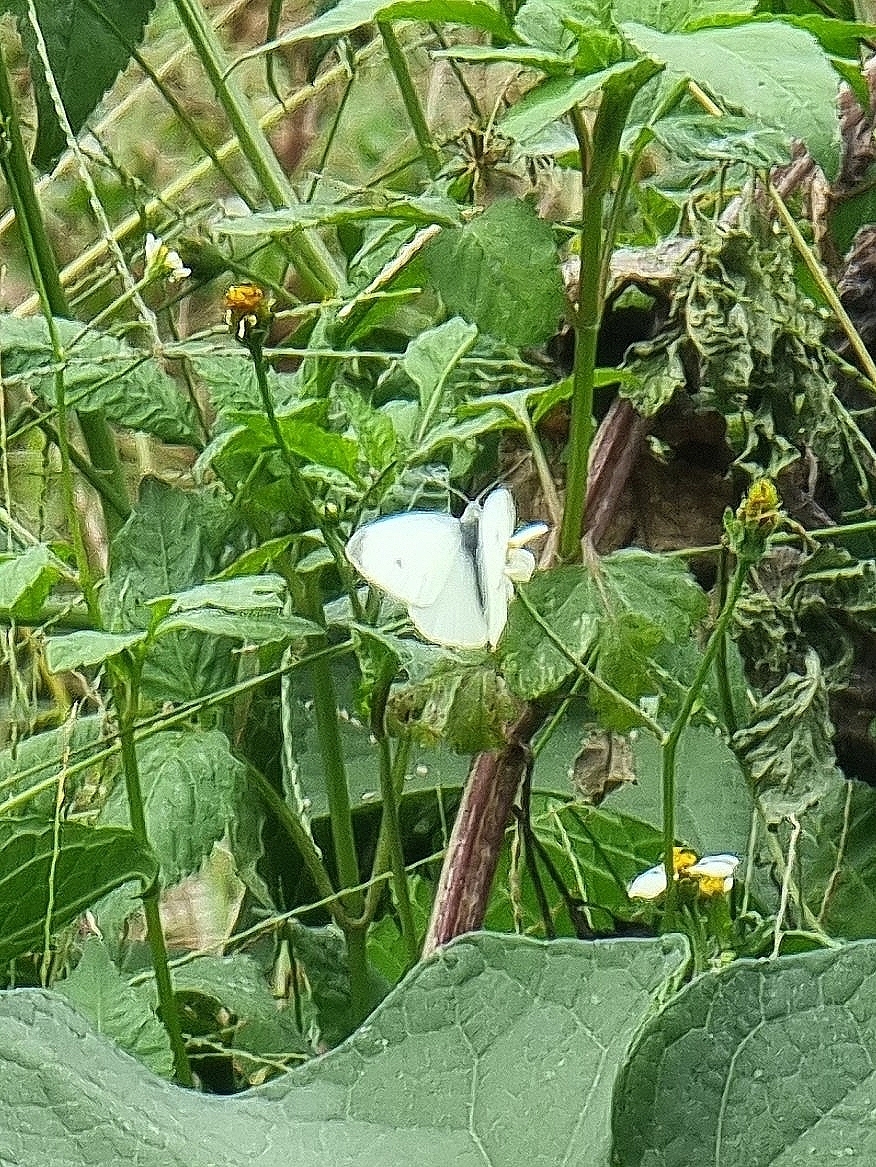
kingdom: Animalia
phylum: Arthropoda
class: Insecta
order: Lepidoptera
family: Pieridae
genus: Pieris
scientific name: Pieris rapae
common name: Small white
